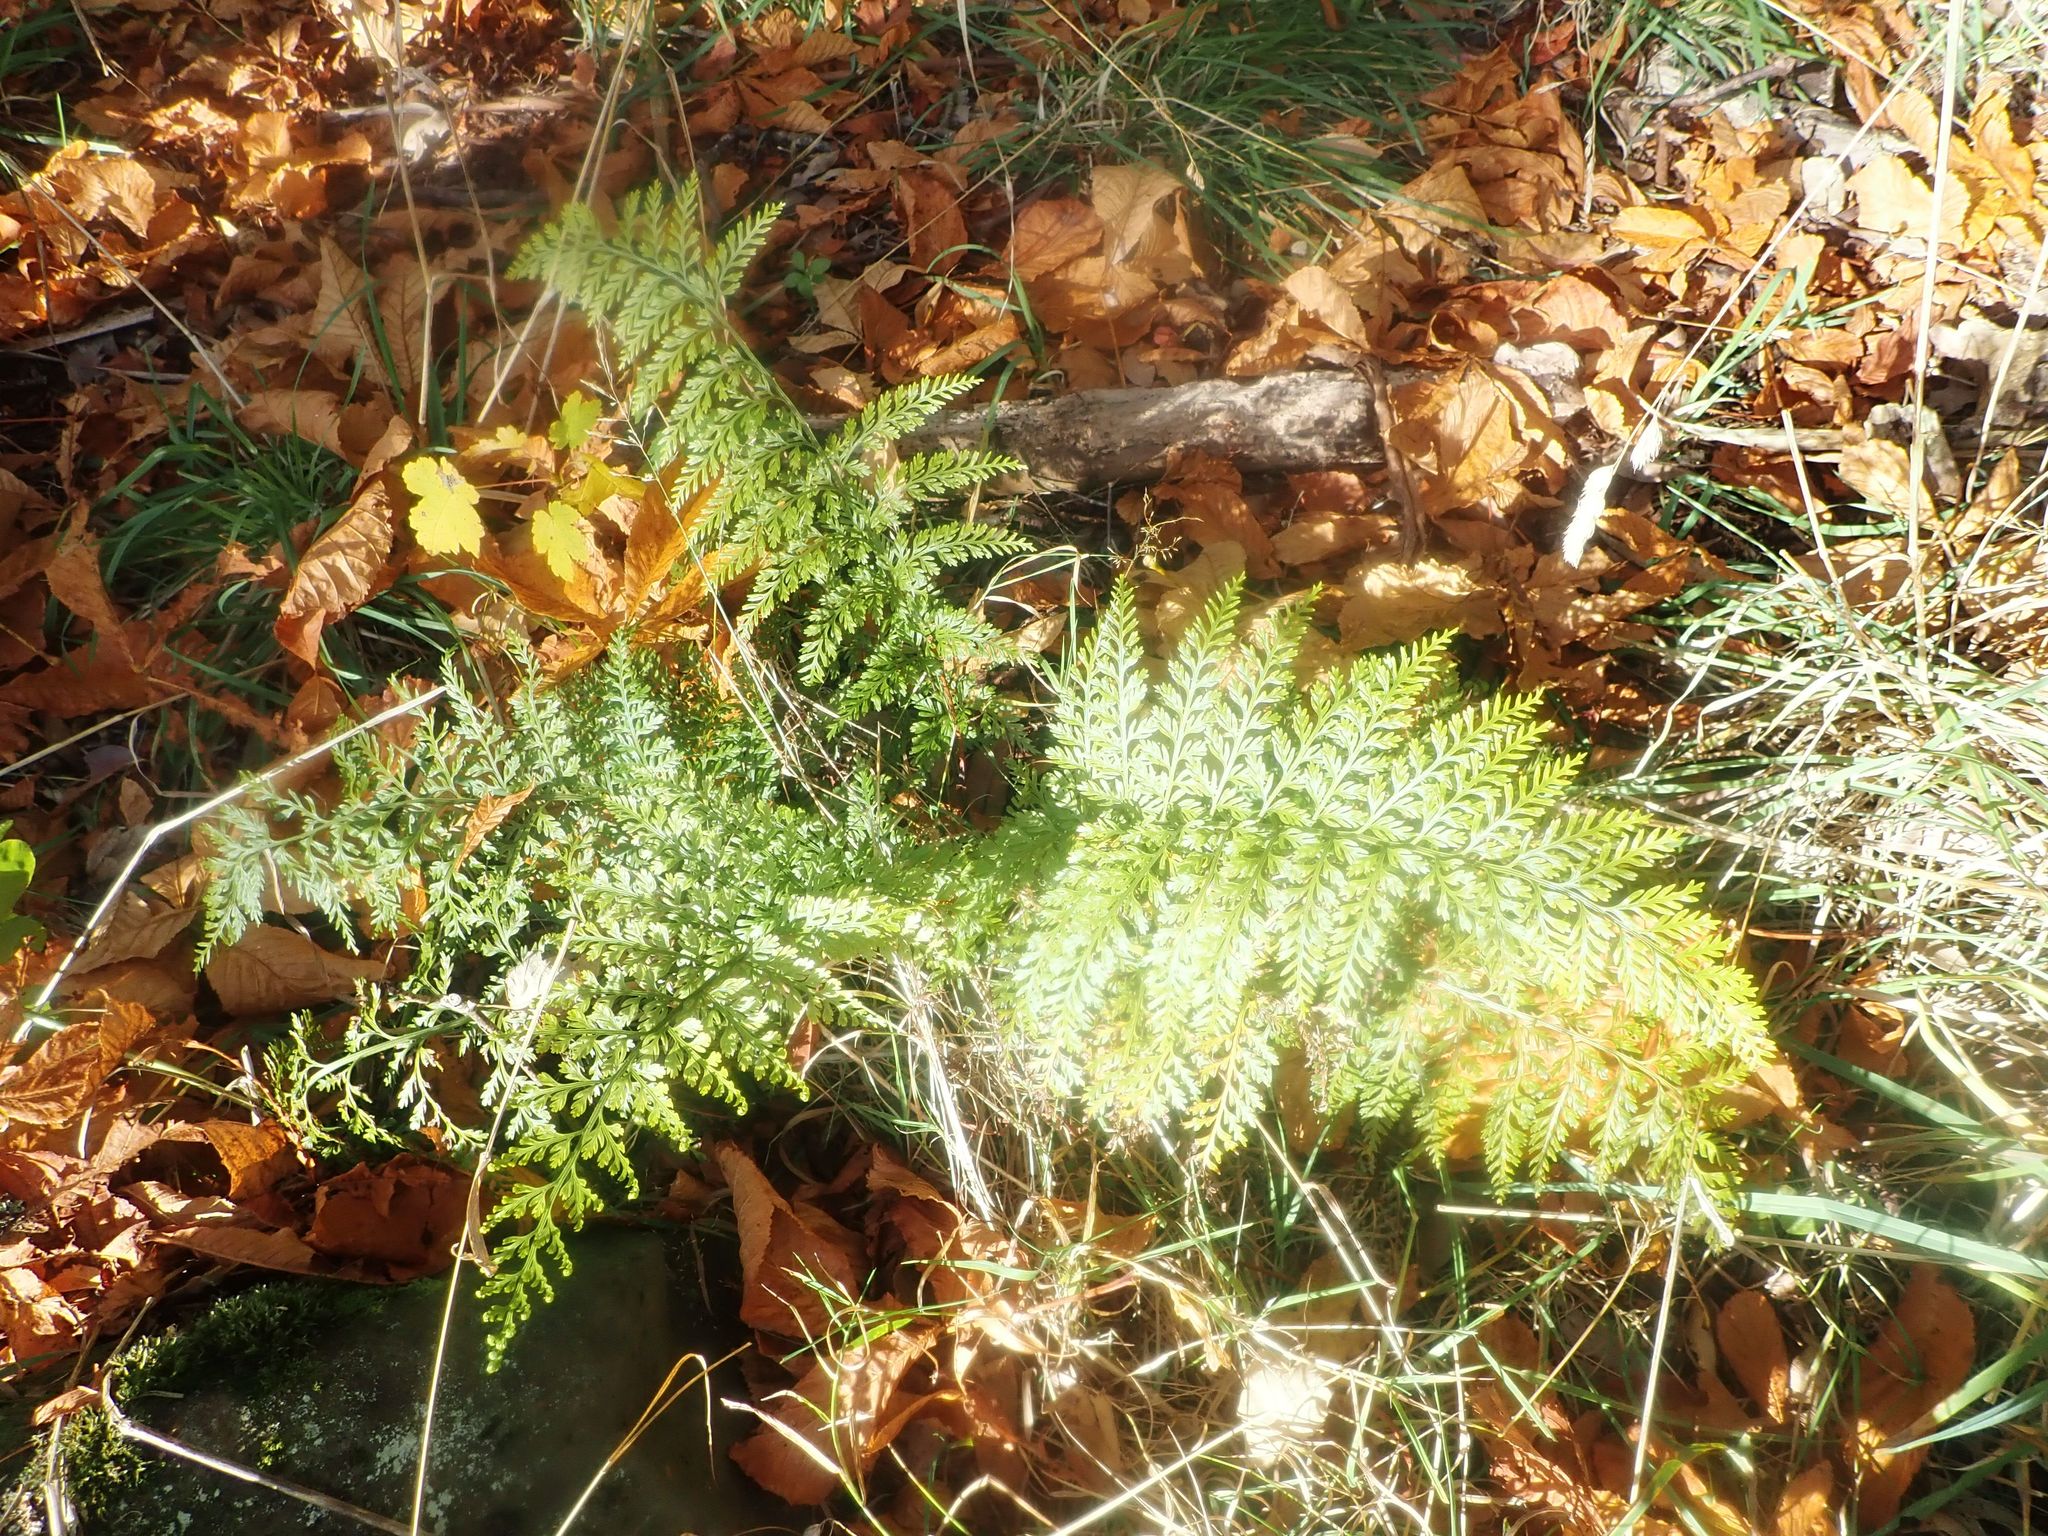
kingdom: Plantae
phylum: Tracheophyta
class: Polypodiopsida
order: Polypodiales
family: Aspleniaceae
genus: Asplenium
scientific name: Asplenium
